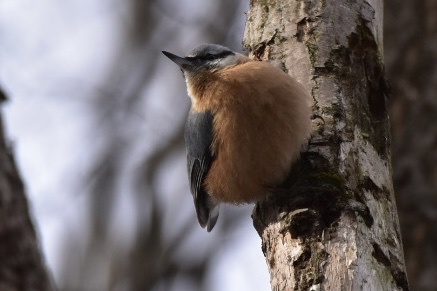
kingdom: Animalia
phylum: Chordata
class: Aves
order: Passeriformes
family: Sittidae
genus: Sitta
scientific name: Sitta europaea
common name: Eurasian nuthatch
